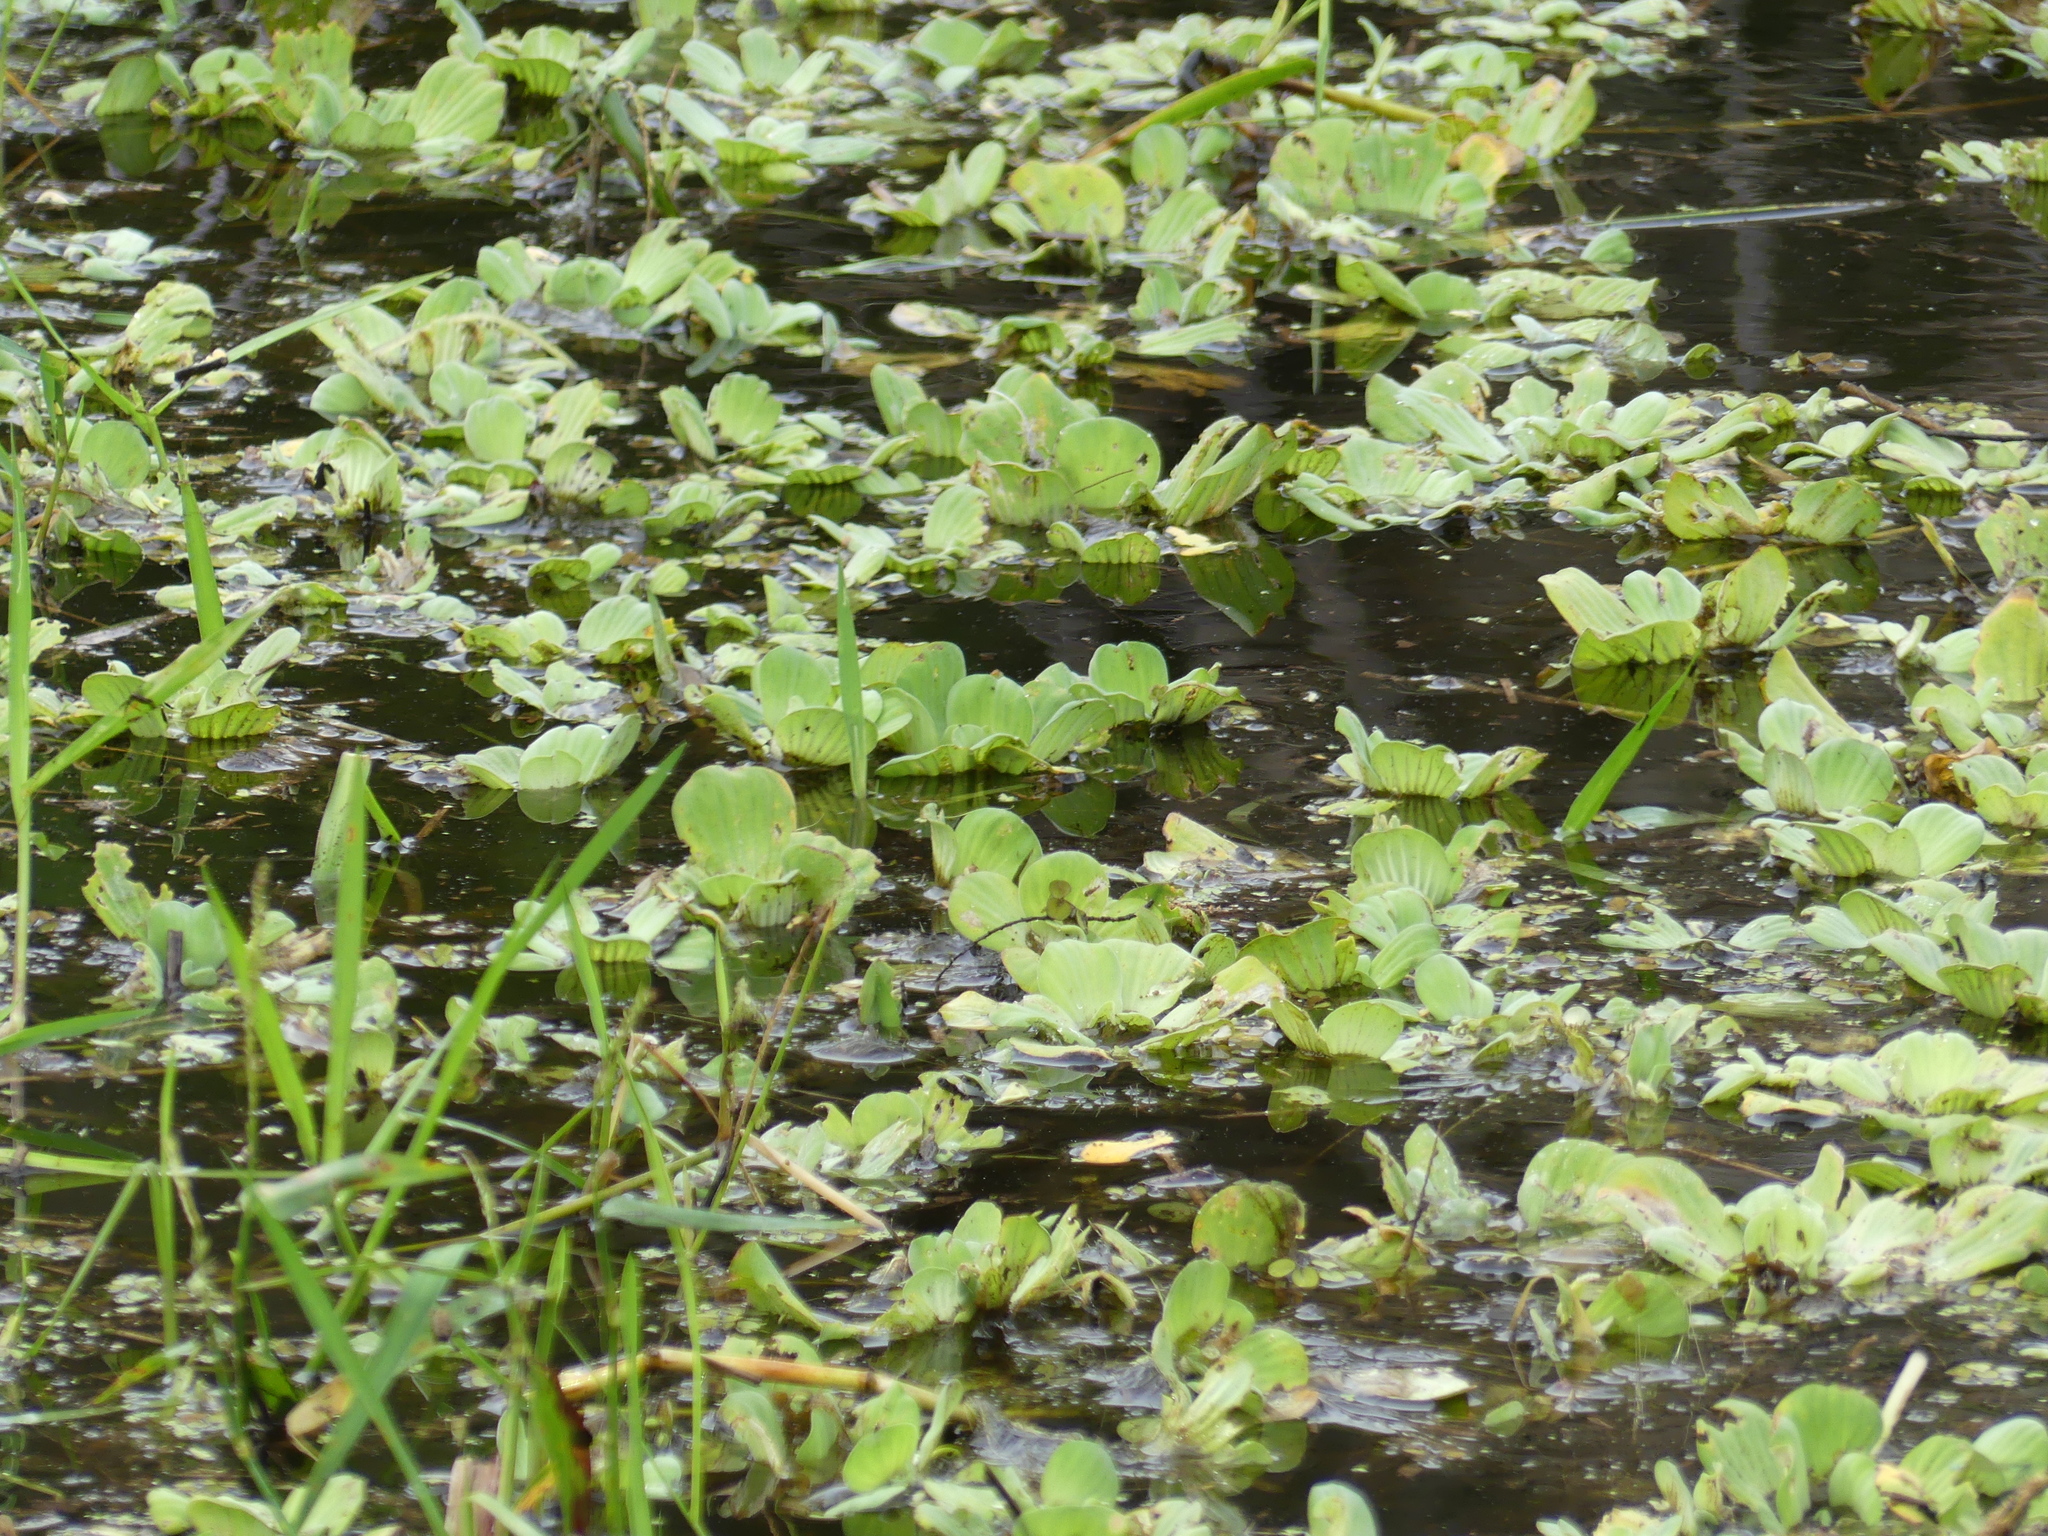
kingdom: Plantae
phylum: Tracheophyta
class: Liliopsida
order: Alismatales
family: Araceae
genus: Pistia
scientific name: Pistia stratiotes
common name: Water lettuce
